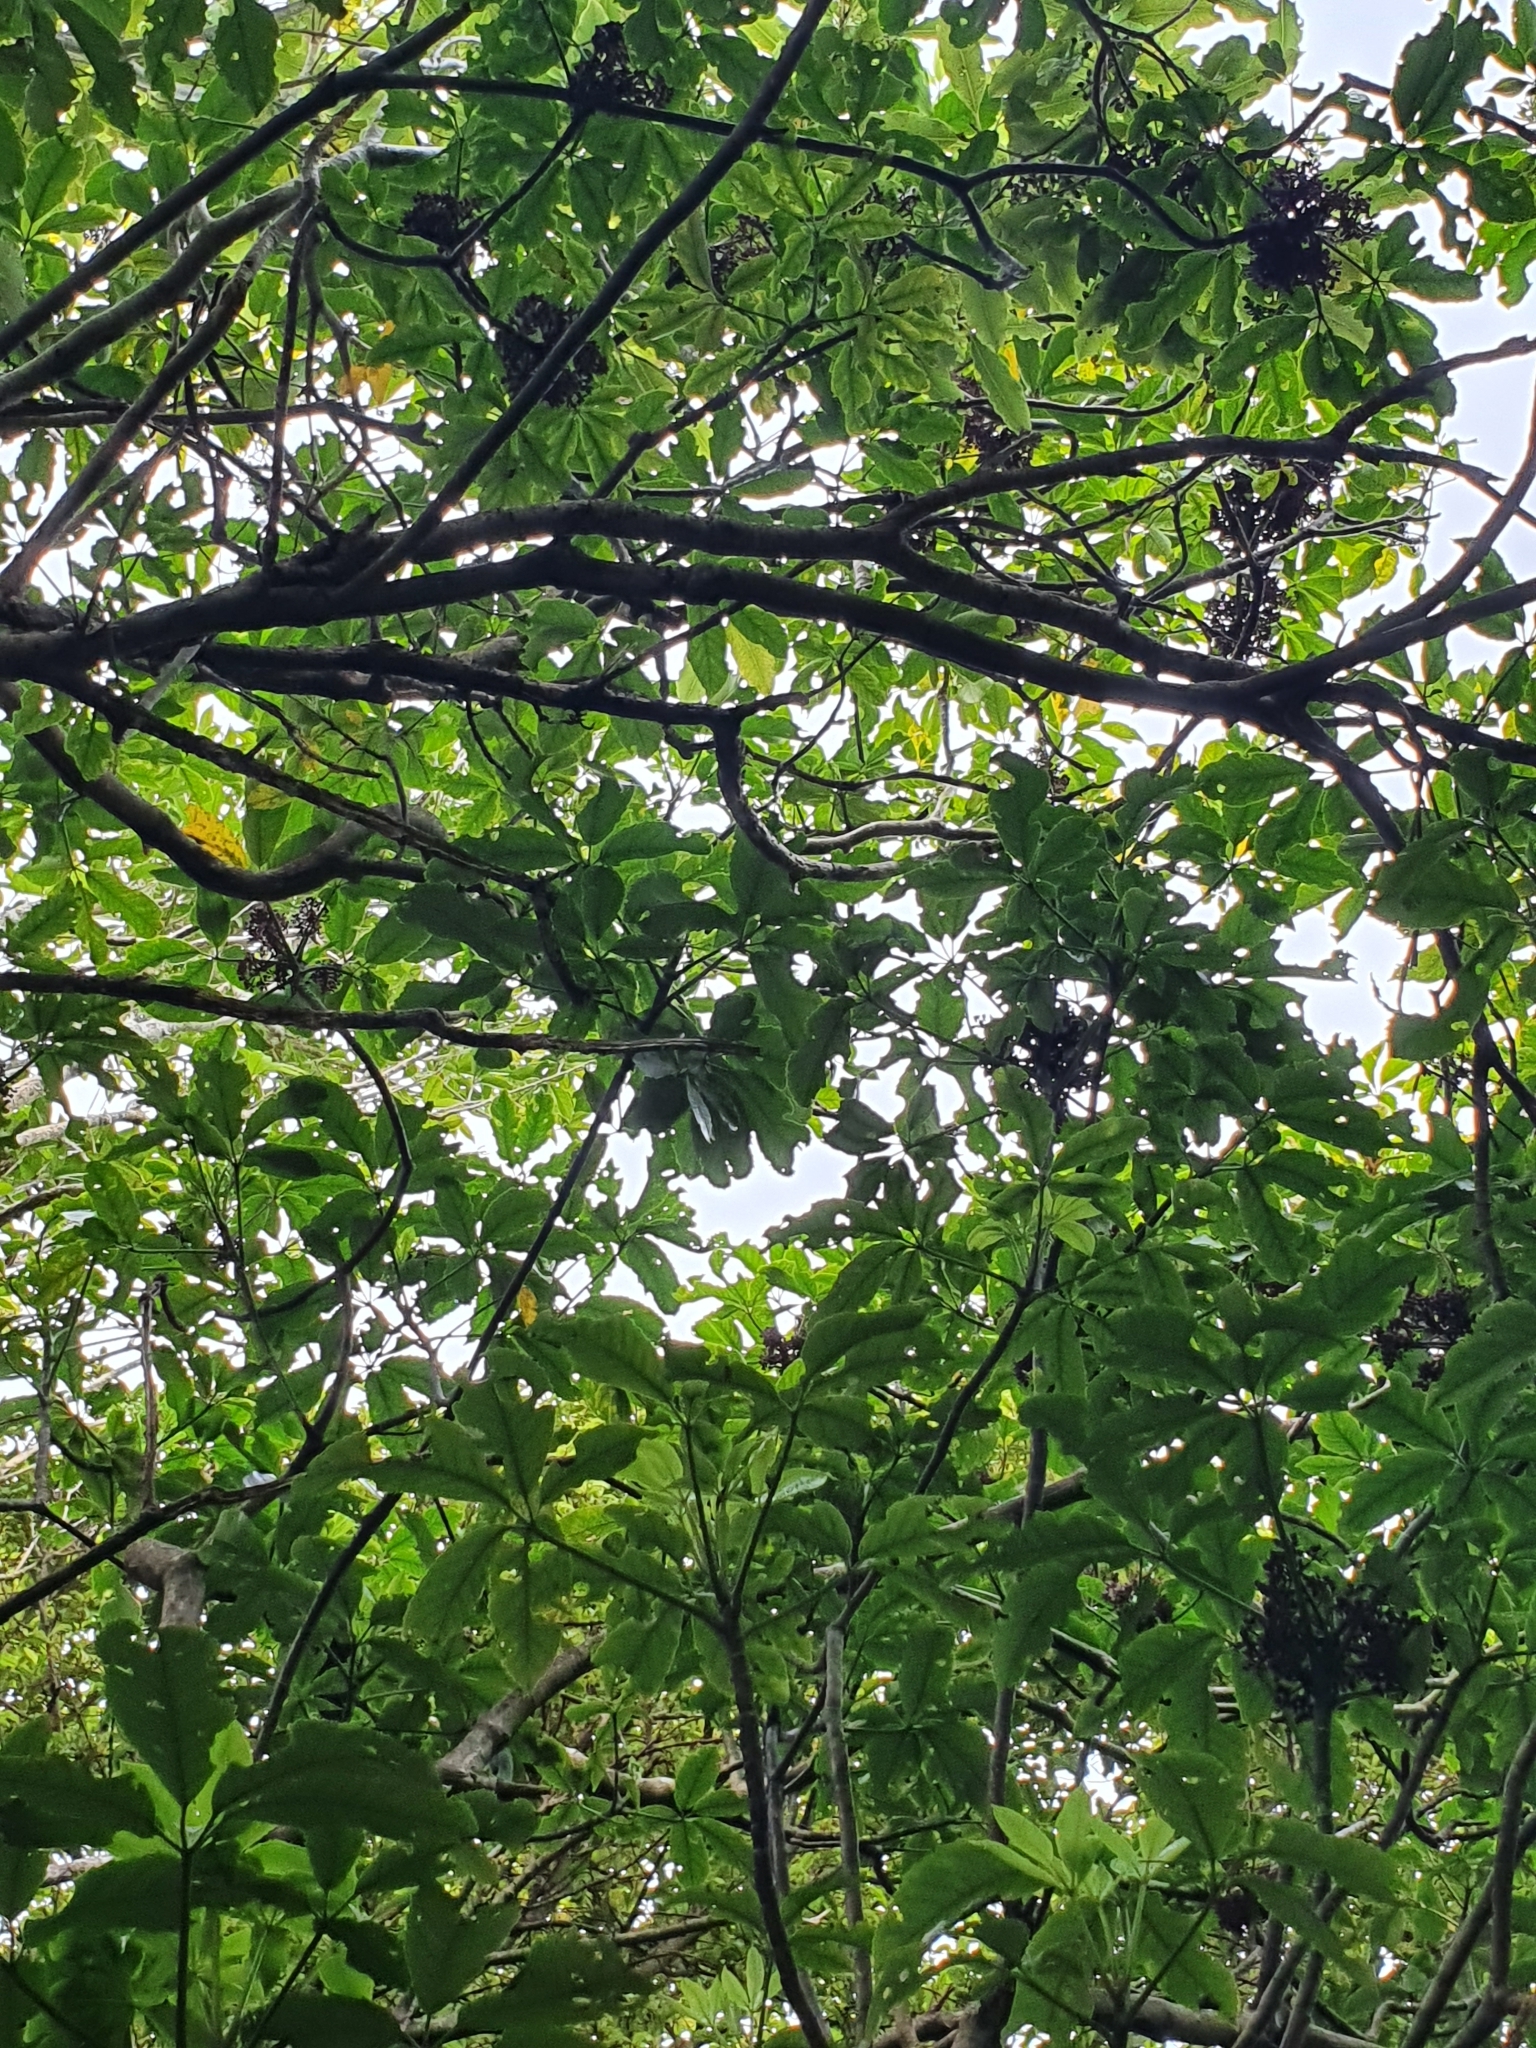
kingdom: Plantae
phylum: Tracheophyta
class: Magnoliopsida
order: Apiales
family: Araliaceae
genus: Neopanax
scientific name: Neopanax arboreus
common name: Five-fingers
